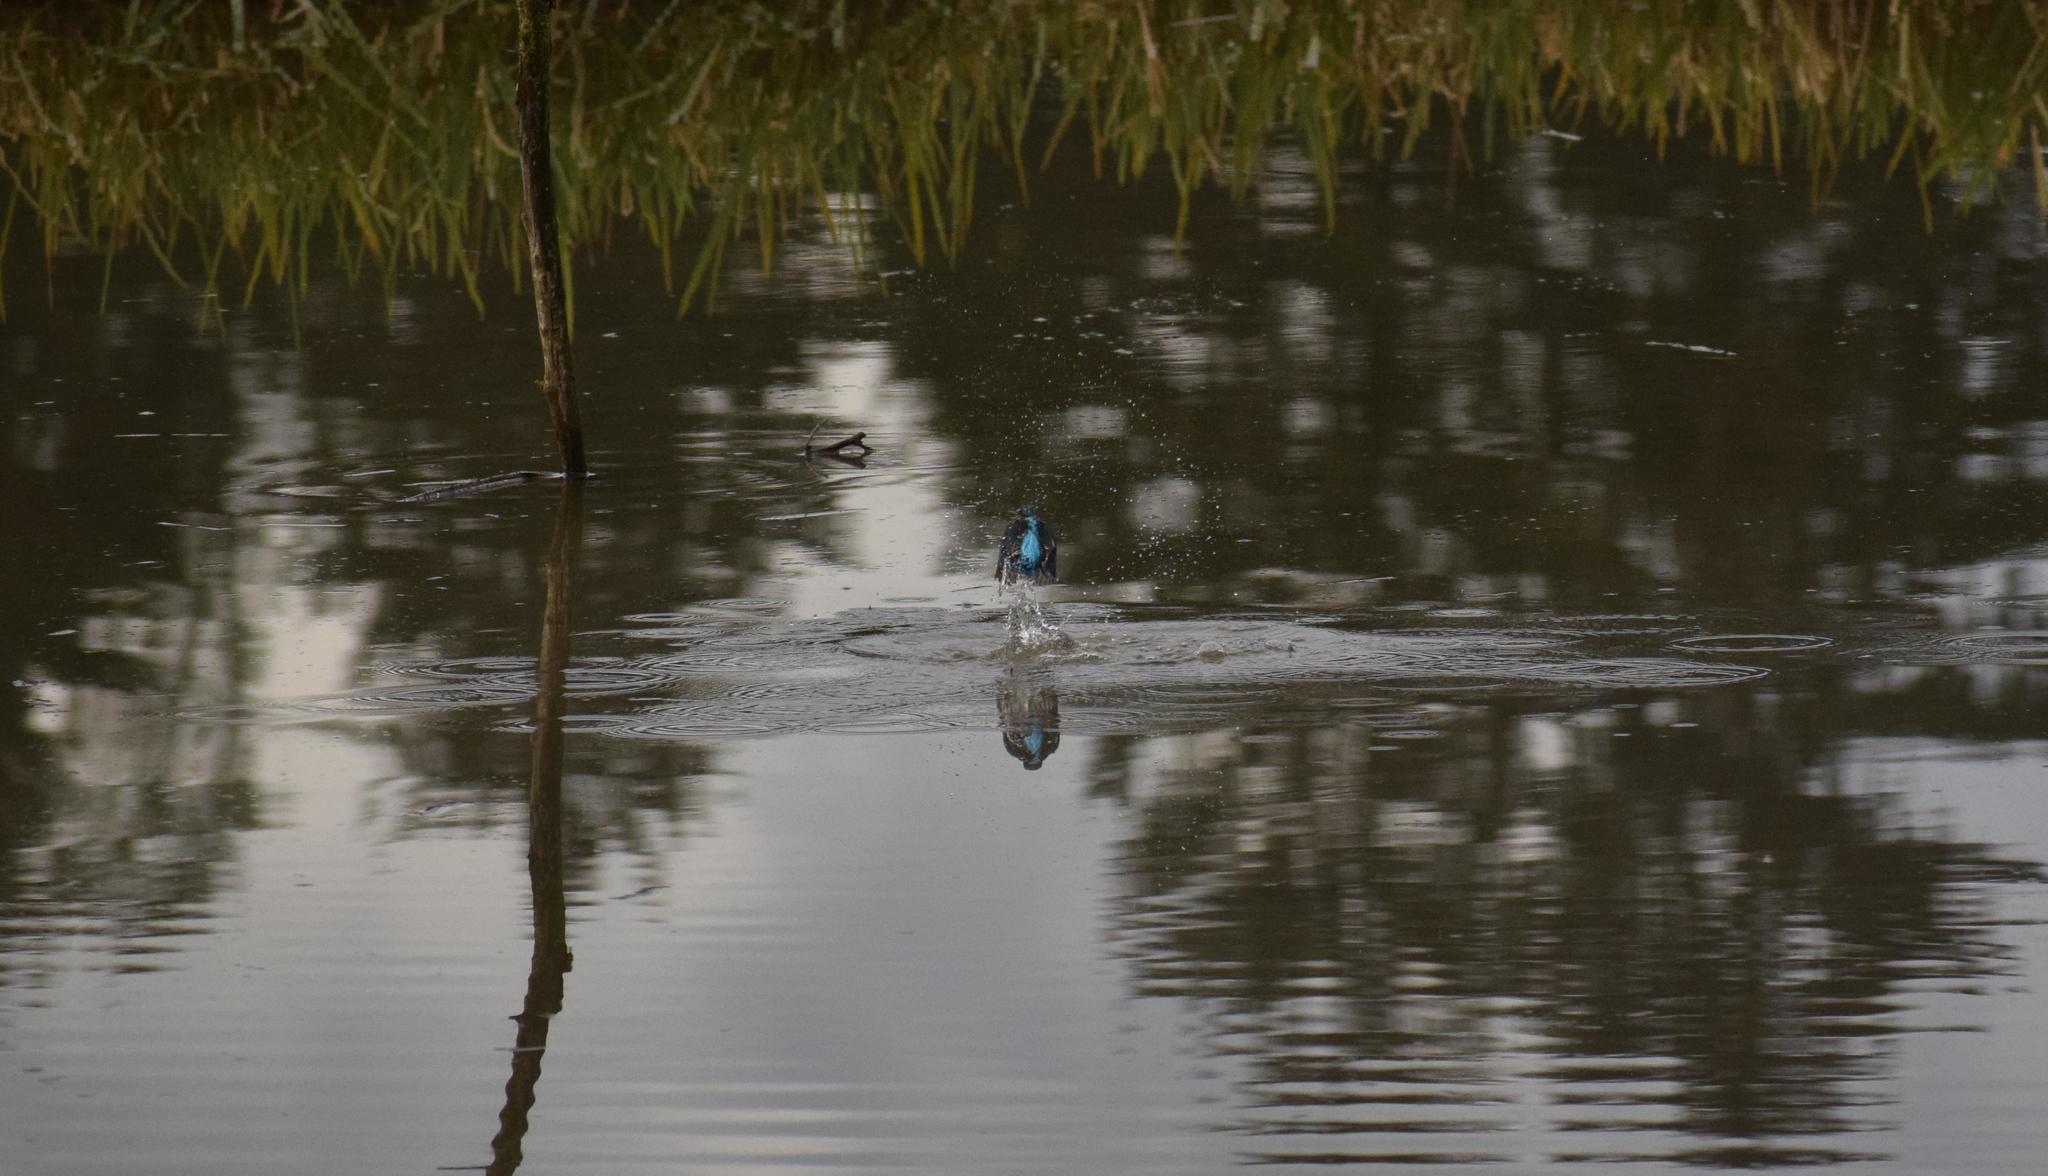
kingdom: Animalia
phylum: Chordata
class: Aves
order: Coraciiformes
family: Alcedinidae
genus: Alcedo
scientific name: Alcedo atthis
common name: Common kingfisher
